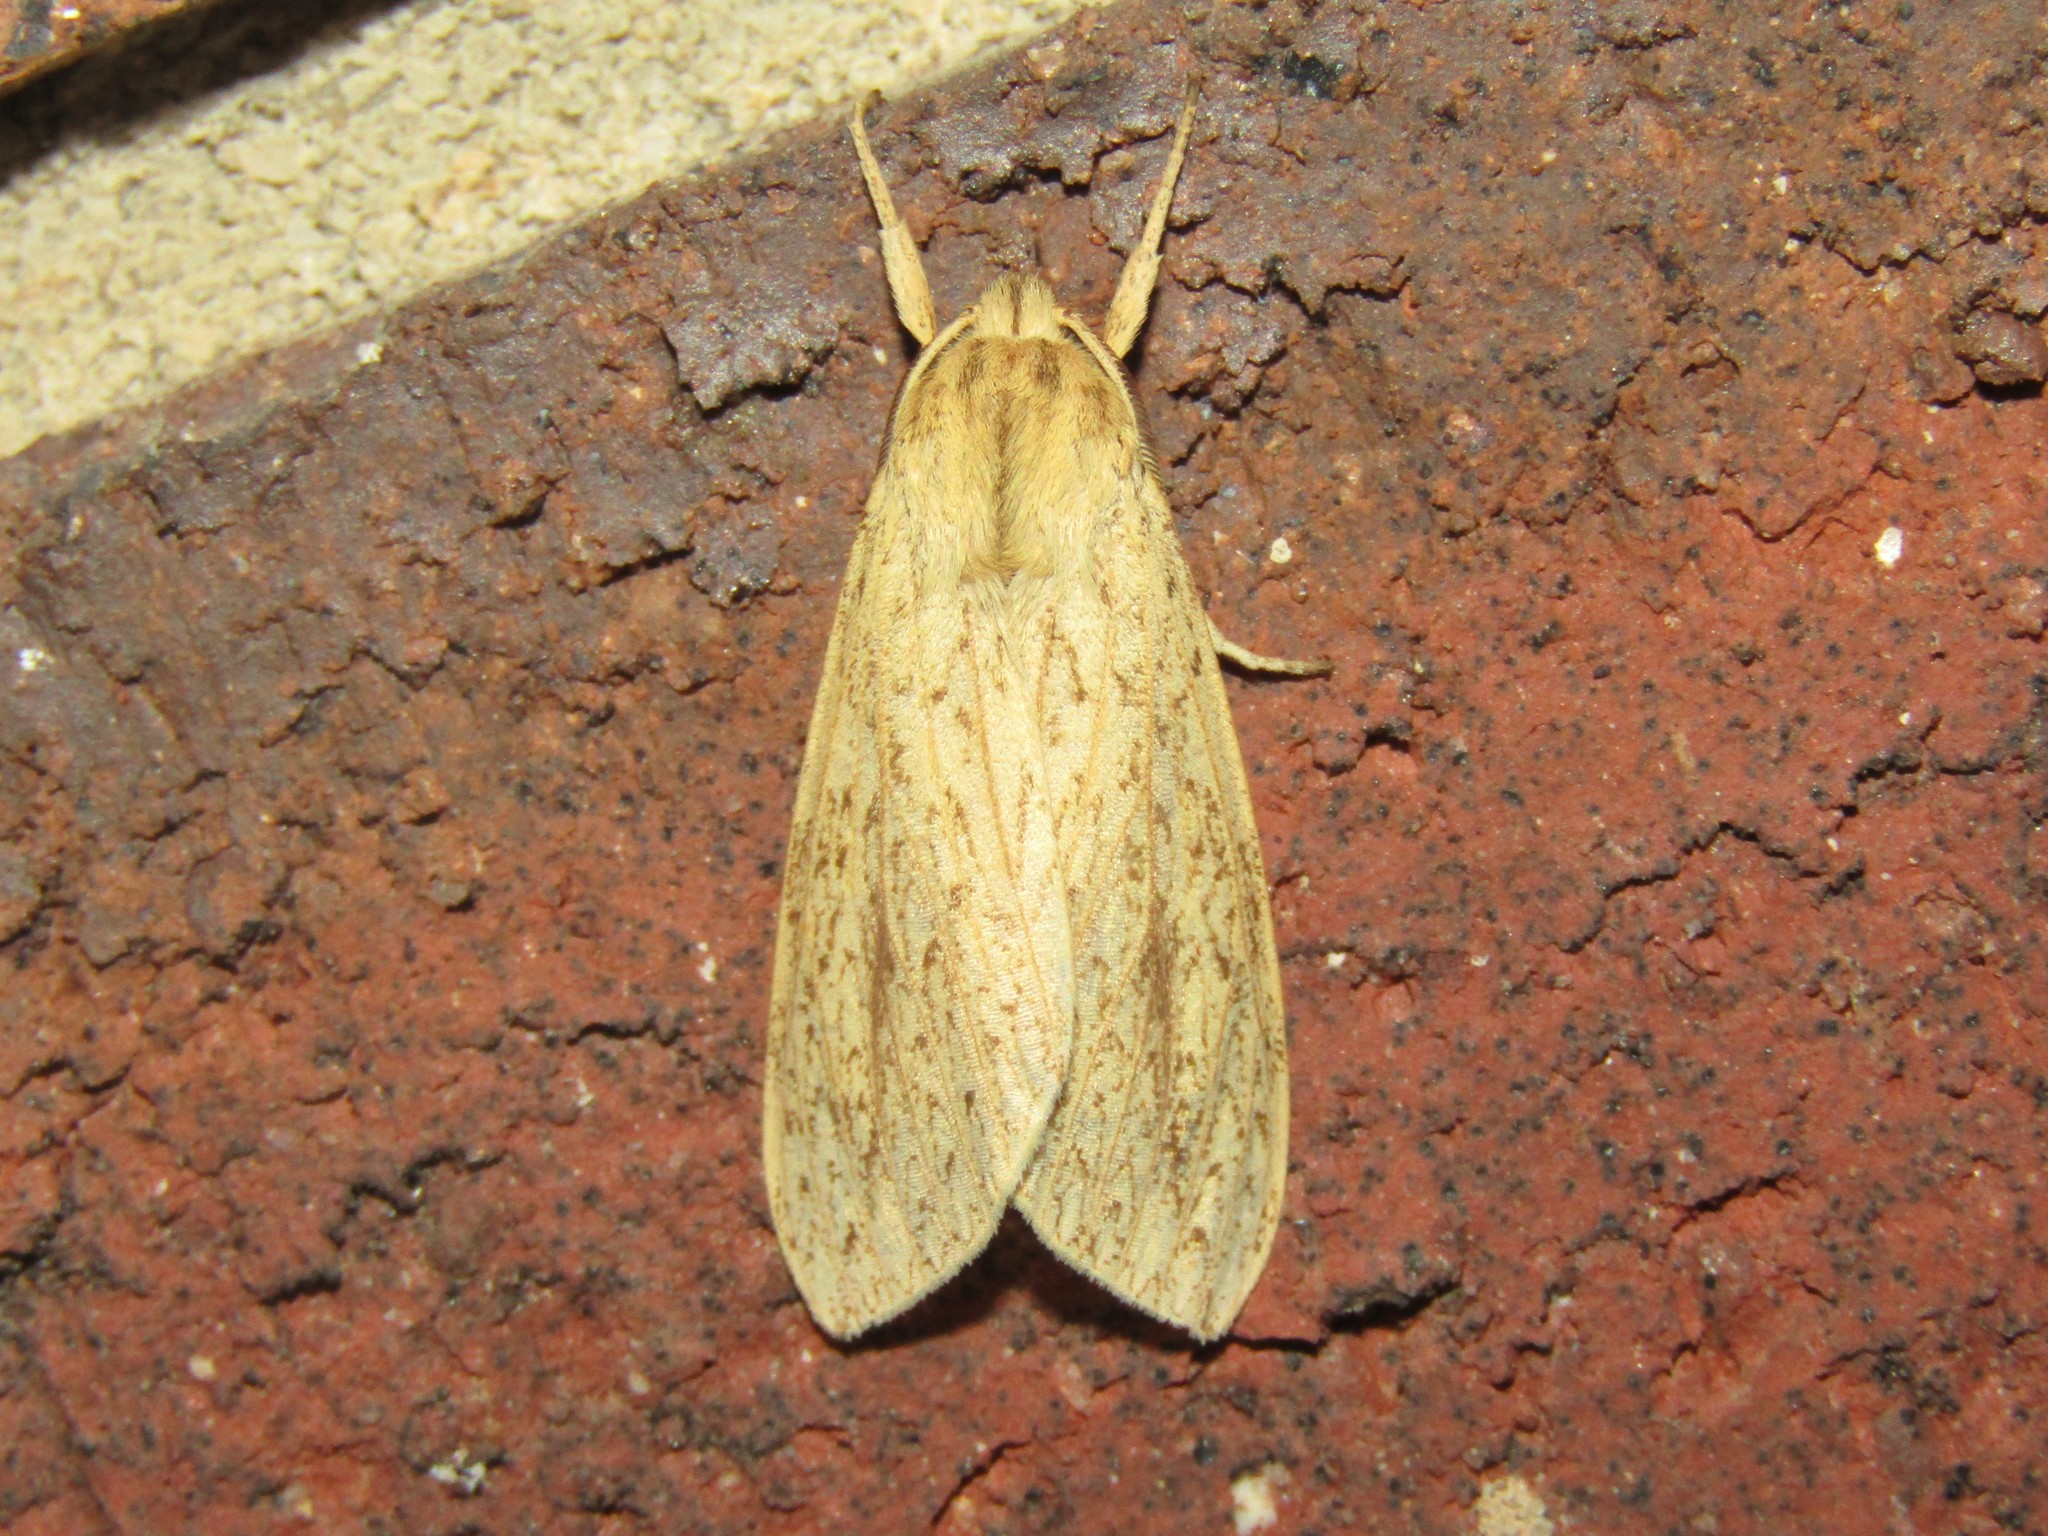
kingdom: Animalia
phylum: Arthropoda
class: Insecta
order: Lepidoptera
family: Erebidae
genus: Leucanopsis
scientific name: Leucanopsis longa
